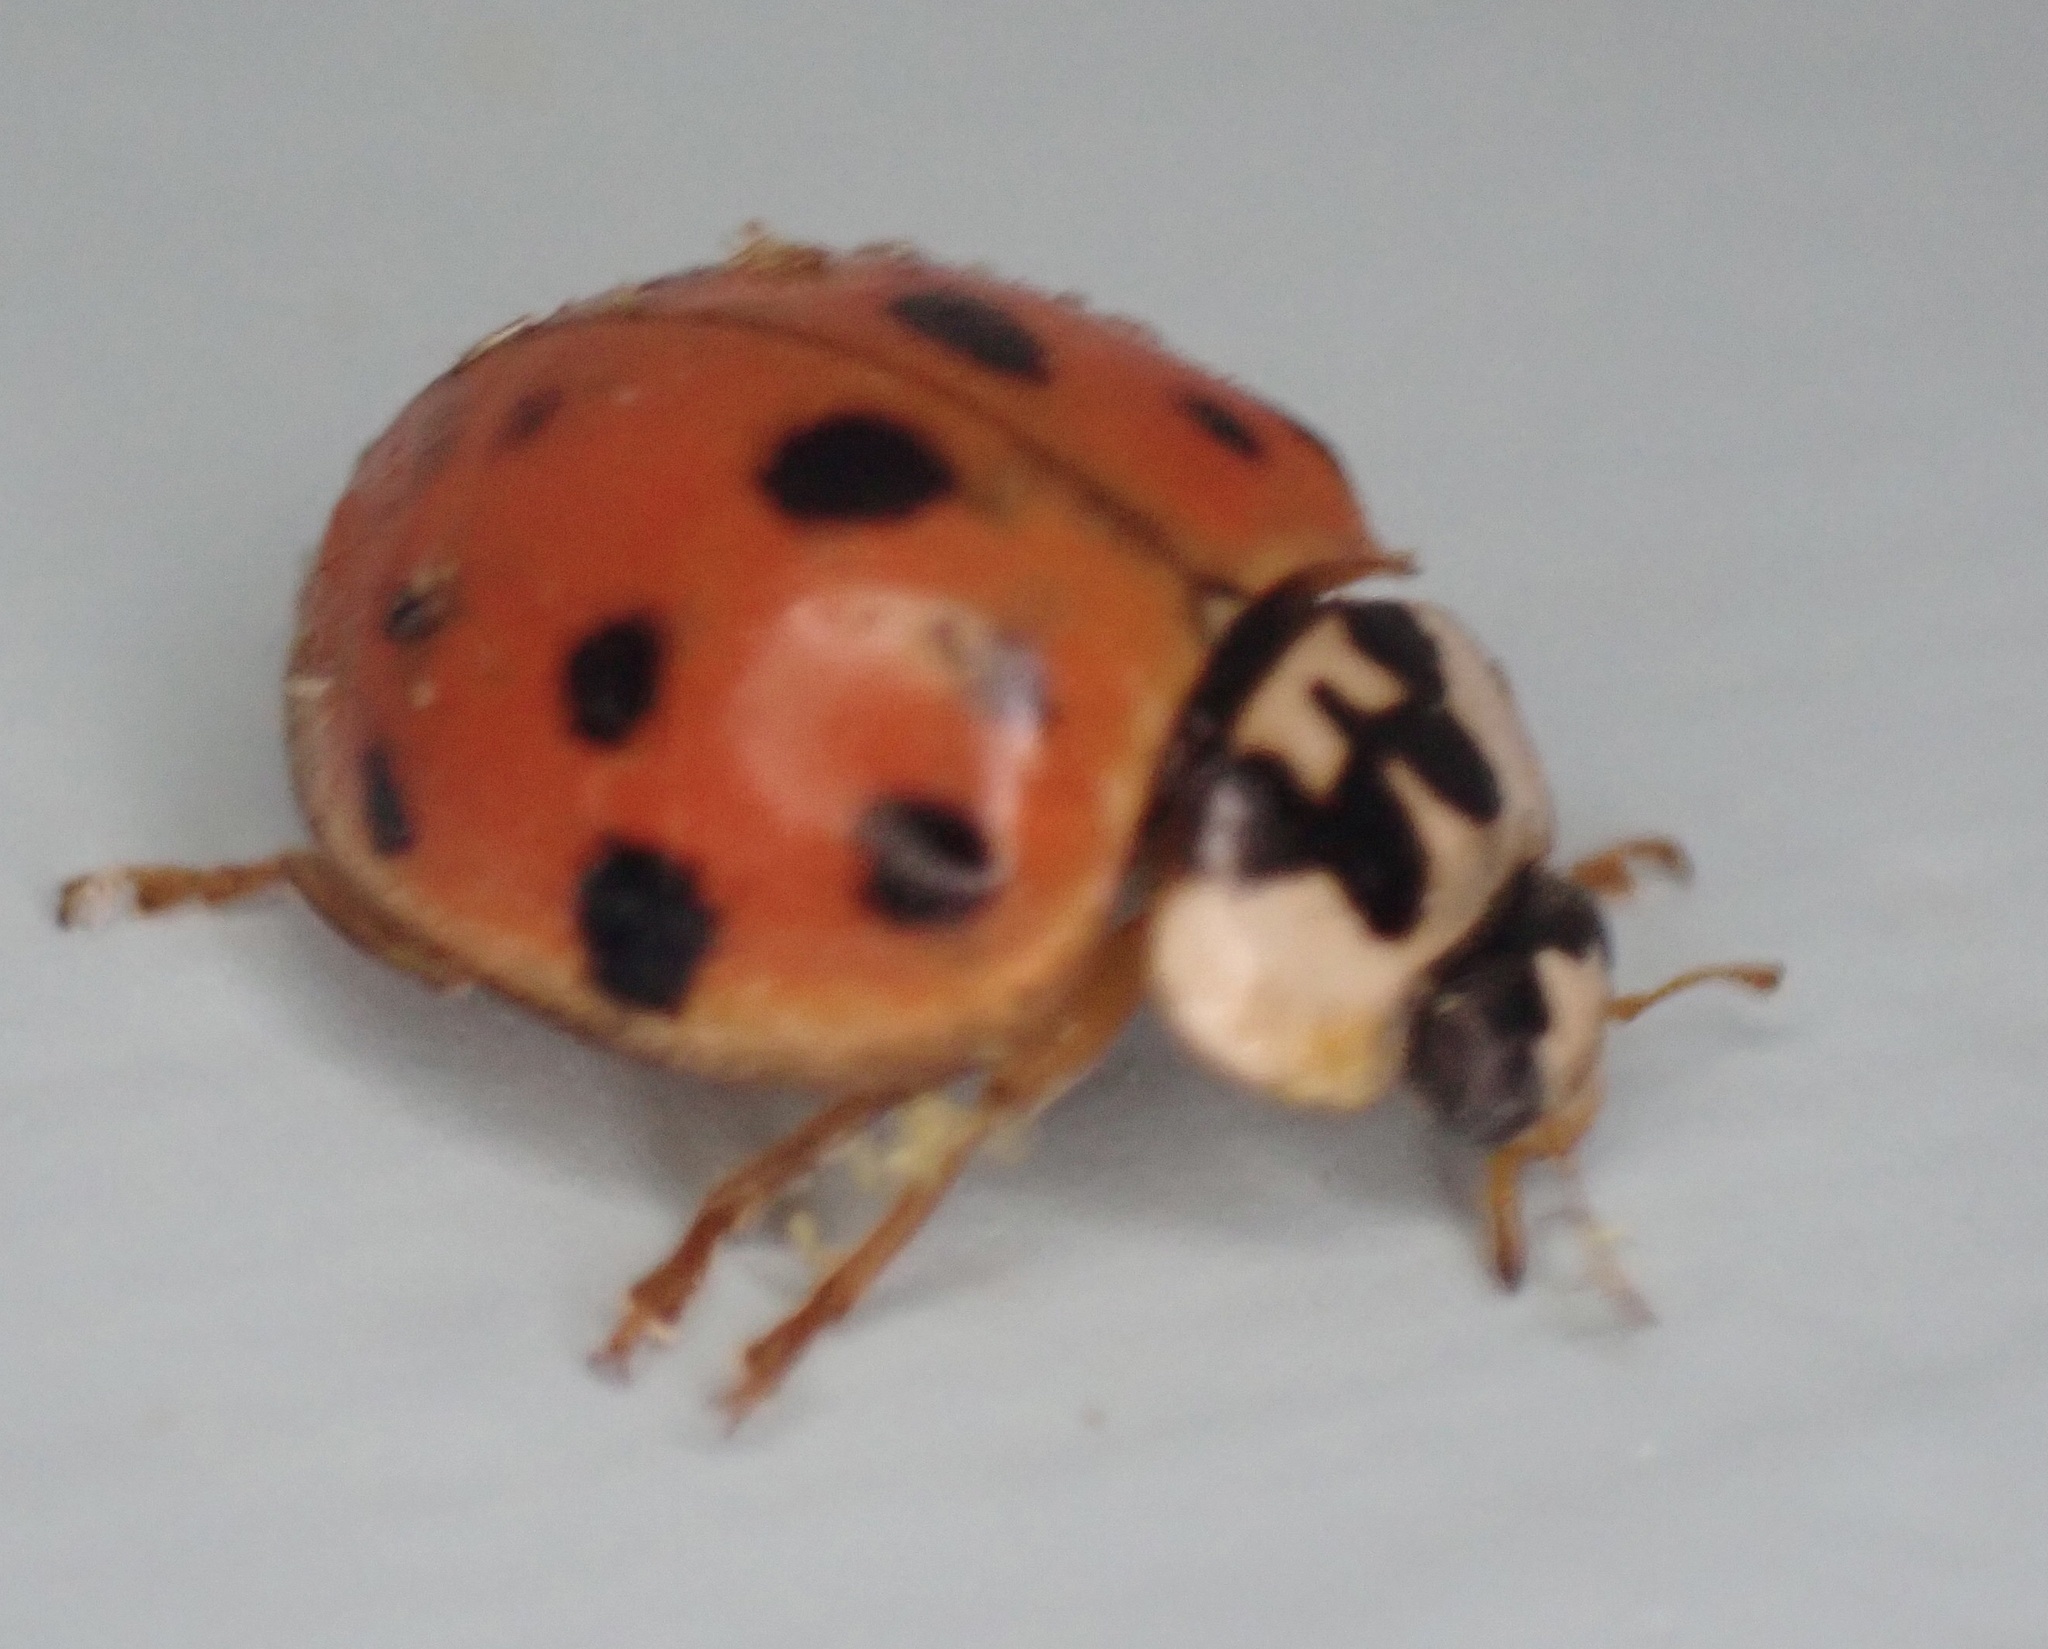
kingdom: Animalia
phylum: Arthropoda
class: Insecta
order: Coleoptera
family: Coccinellidae
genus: Harmonia
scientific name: Harmonia axyridis
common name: Harlequin ladybird
